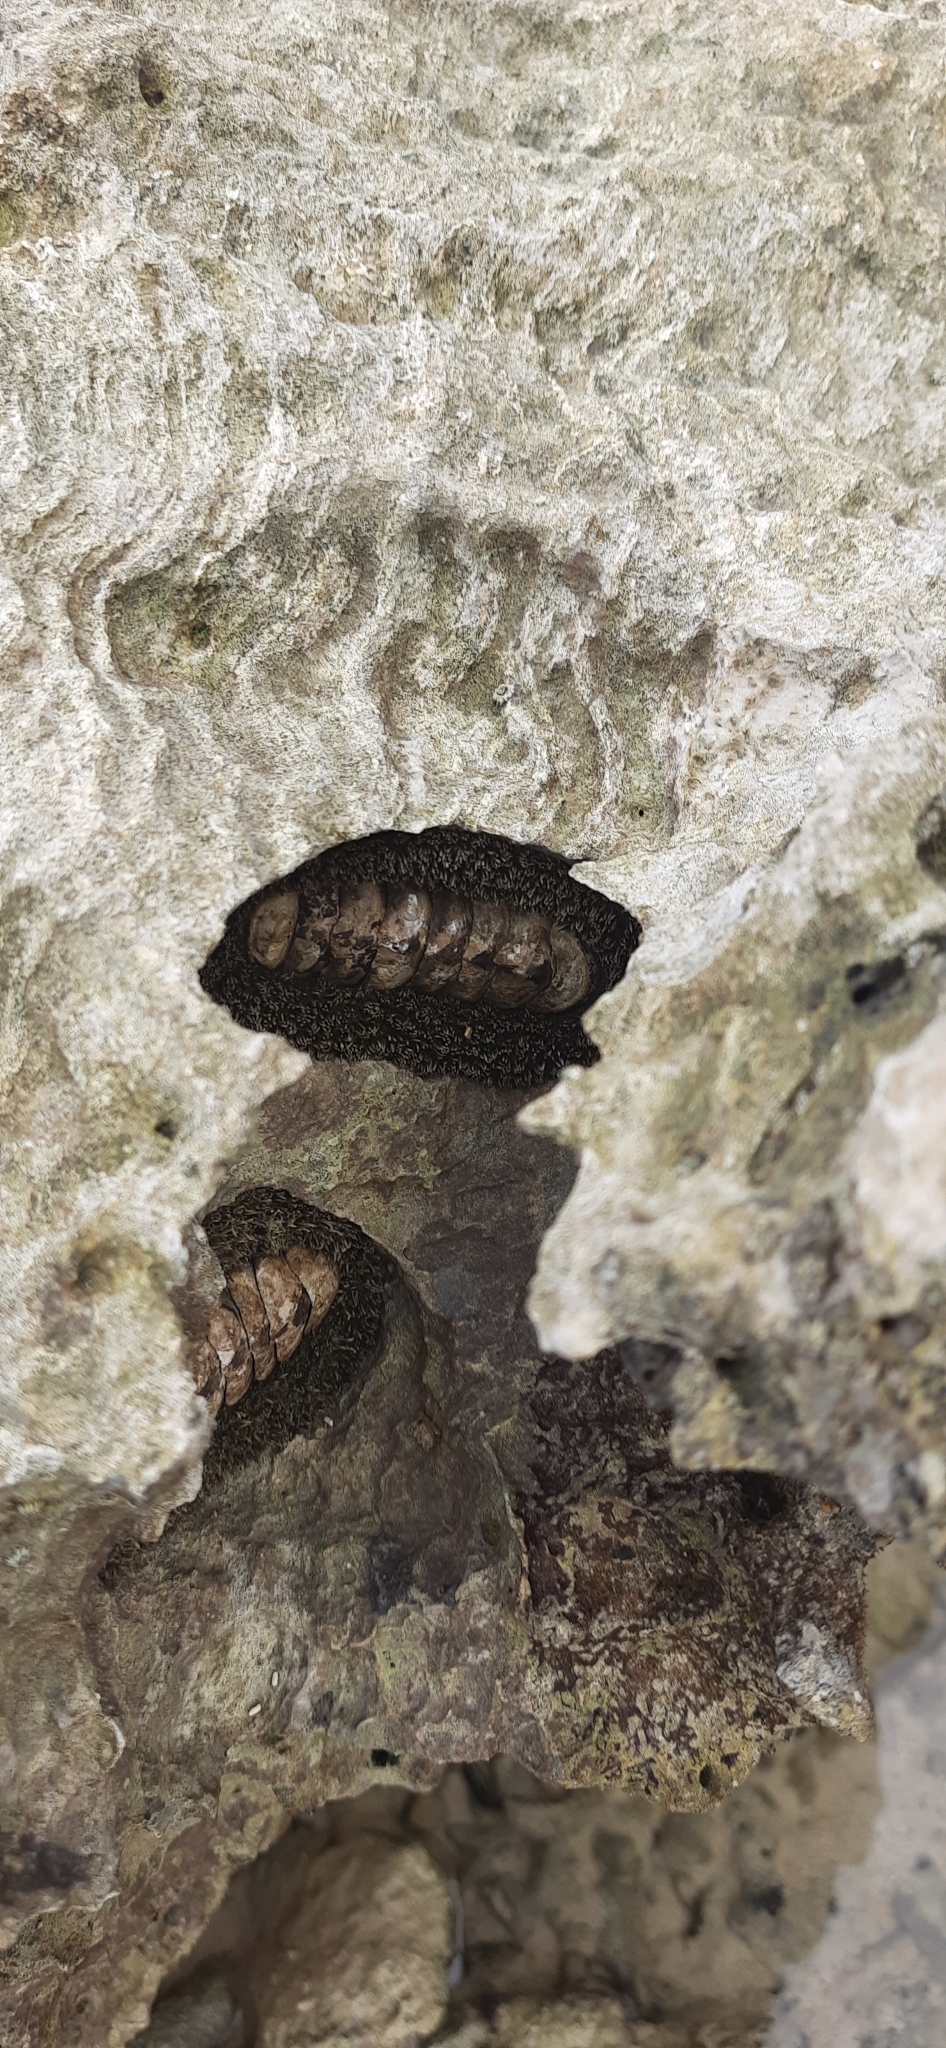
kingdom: Animalia
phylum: Mollusca
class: Polyplacophora
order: Chitonida
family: Chitonidae
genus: Acanthopleura
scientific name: Acanthopleura gemmata
